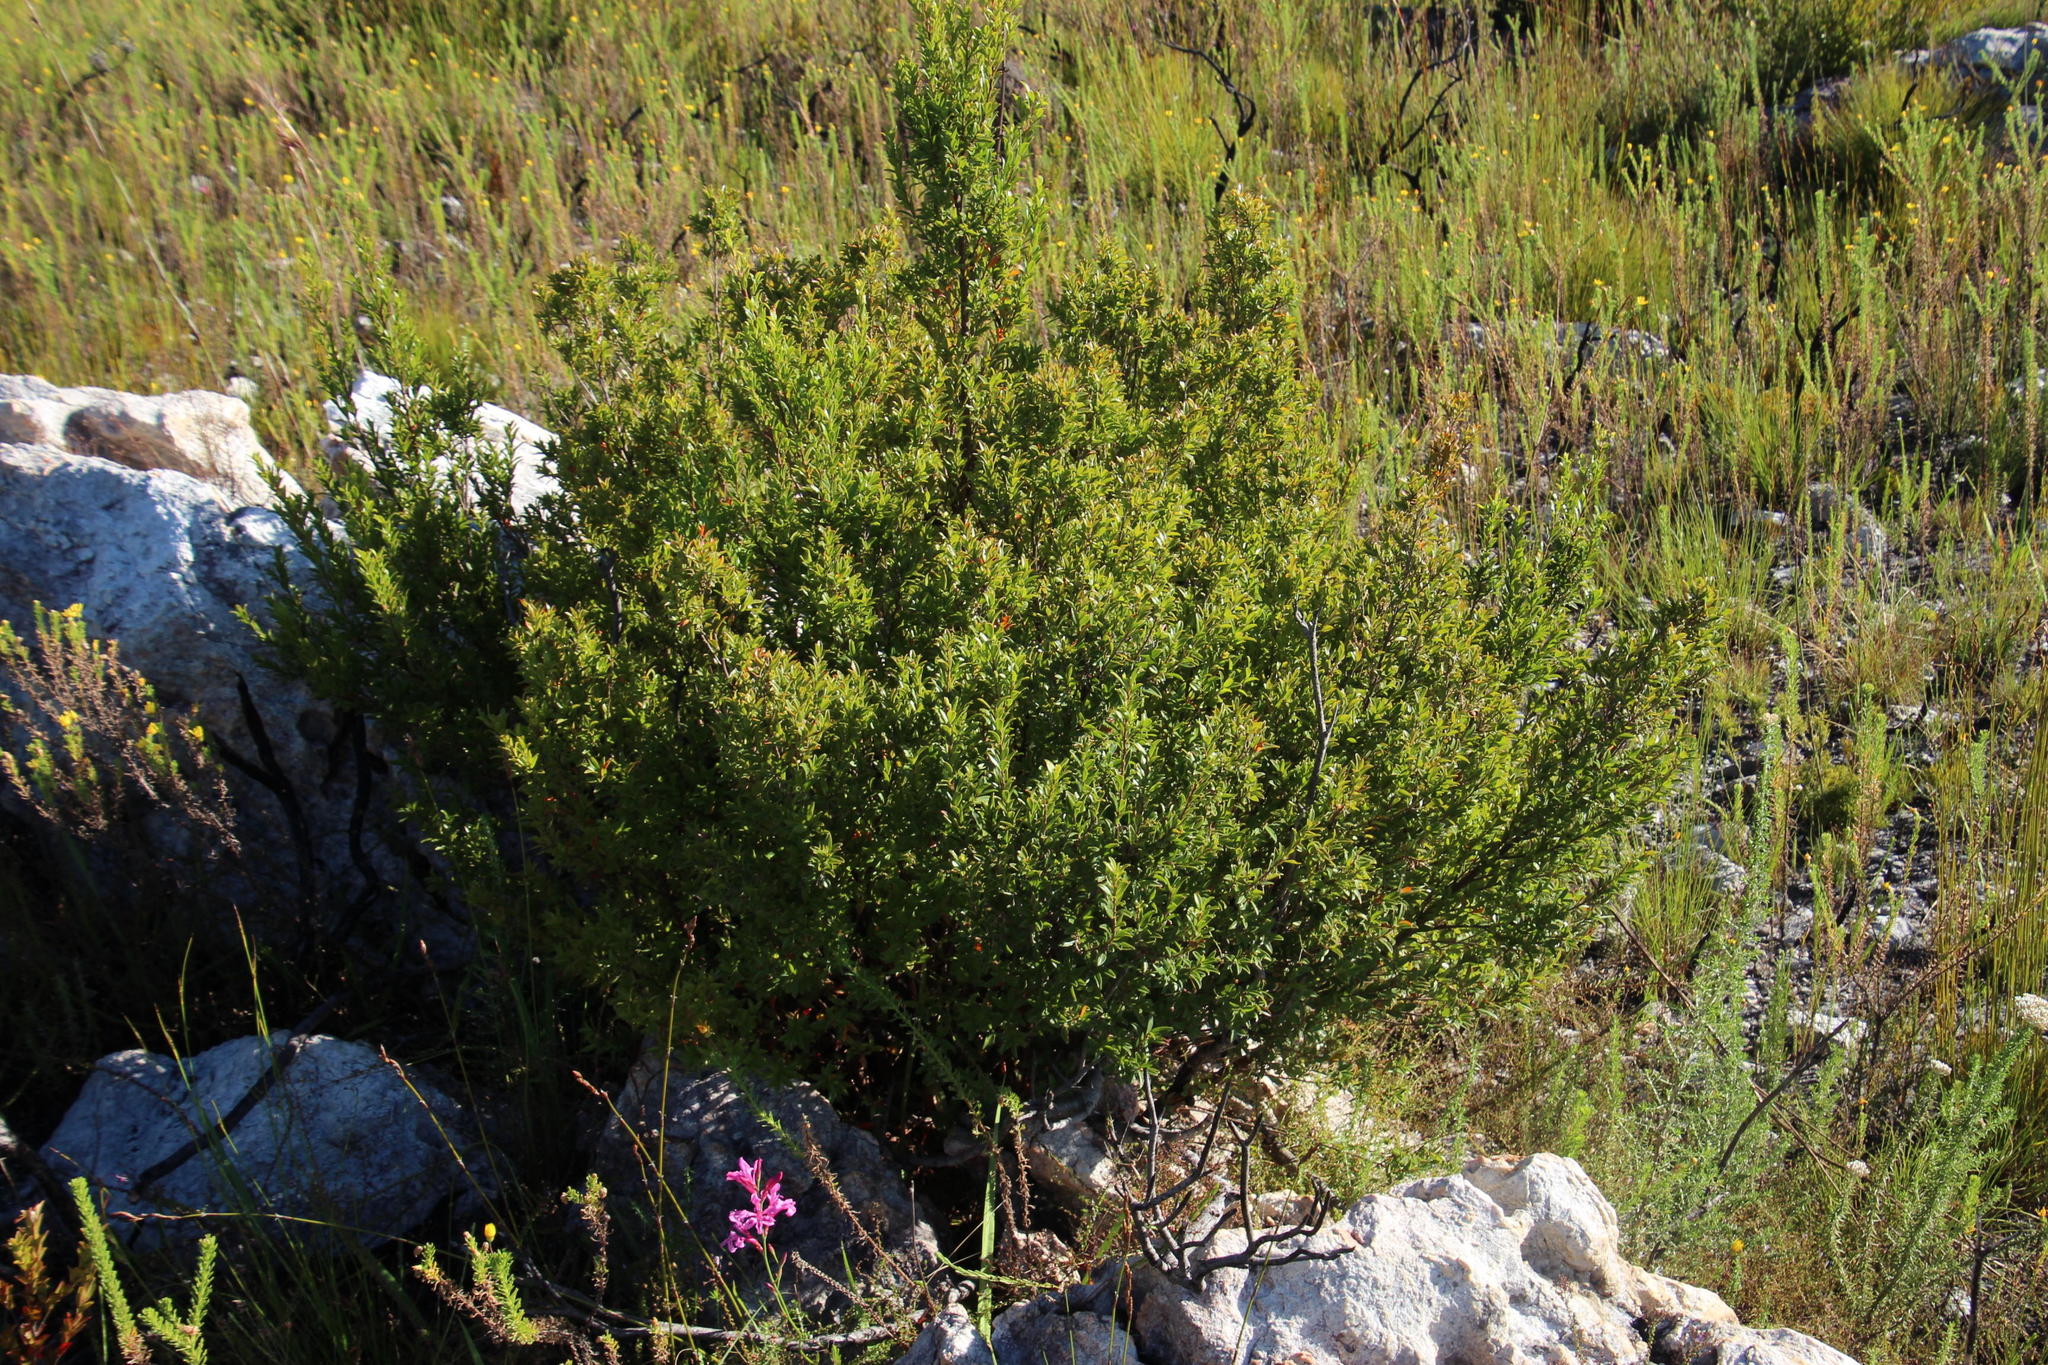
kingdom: Plantae
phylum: Tracheophyta
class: Magnoliopsida
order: Ericales
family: Ebenaceae
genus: Diospyros
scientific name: Diospyros glabra
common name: Fynbos star apple
